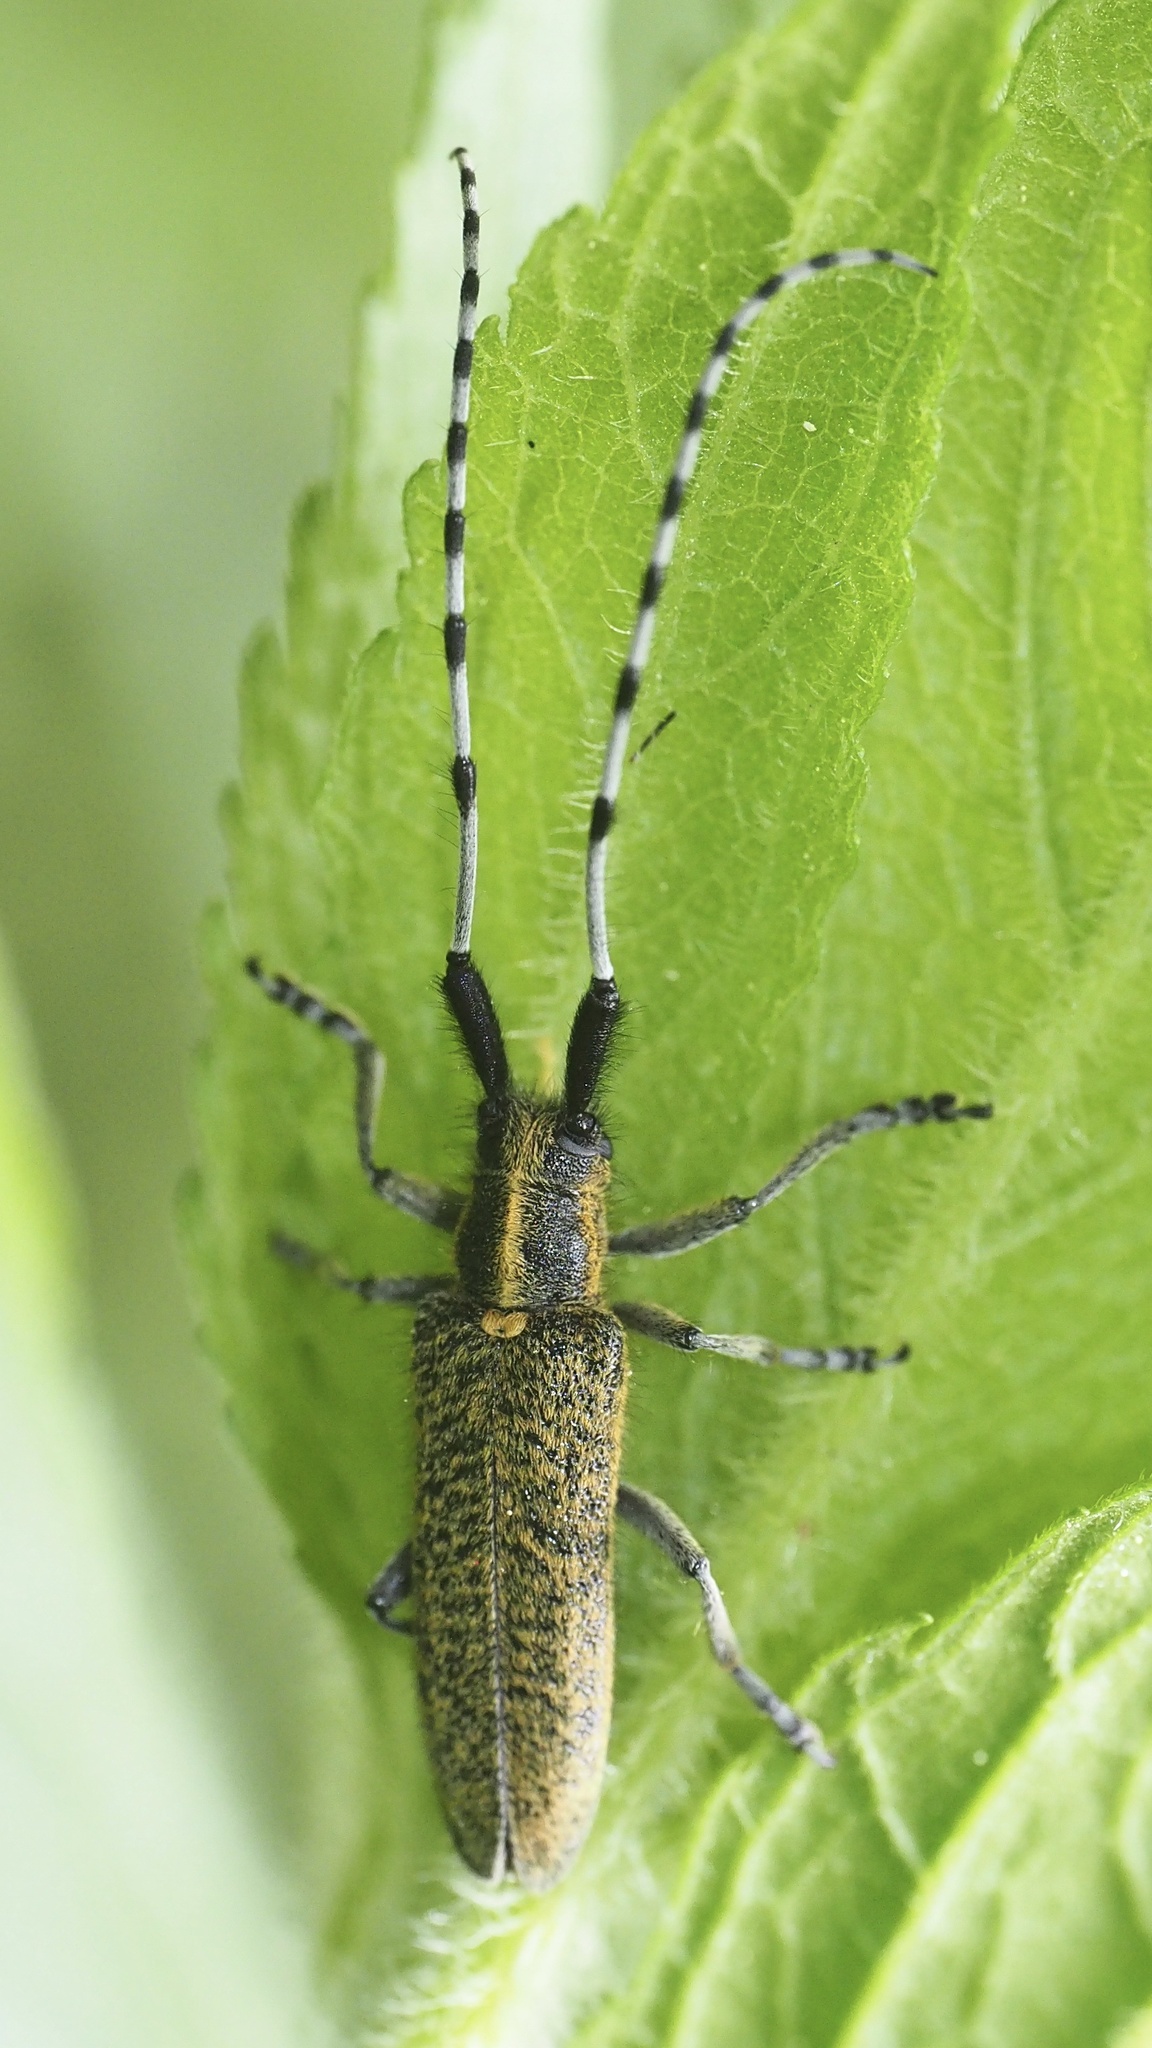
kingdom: Animalia
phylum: Arthropoda
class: Insecta
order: Coleoptera
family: Cerambycidae
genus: Agapanthia
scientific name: Agapanthia villosoviridescens
